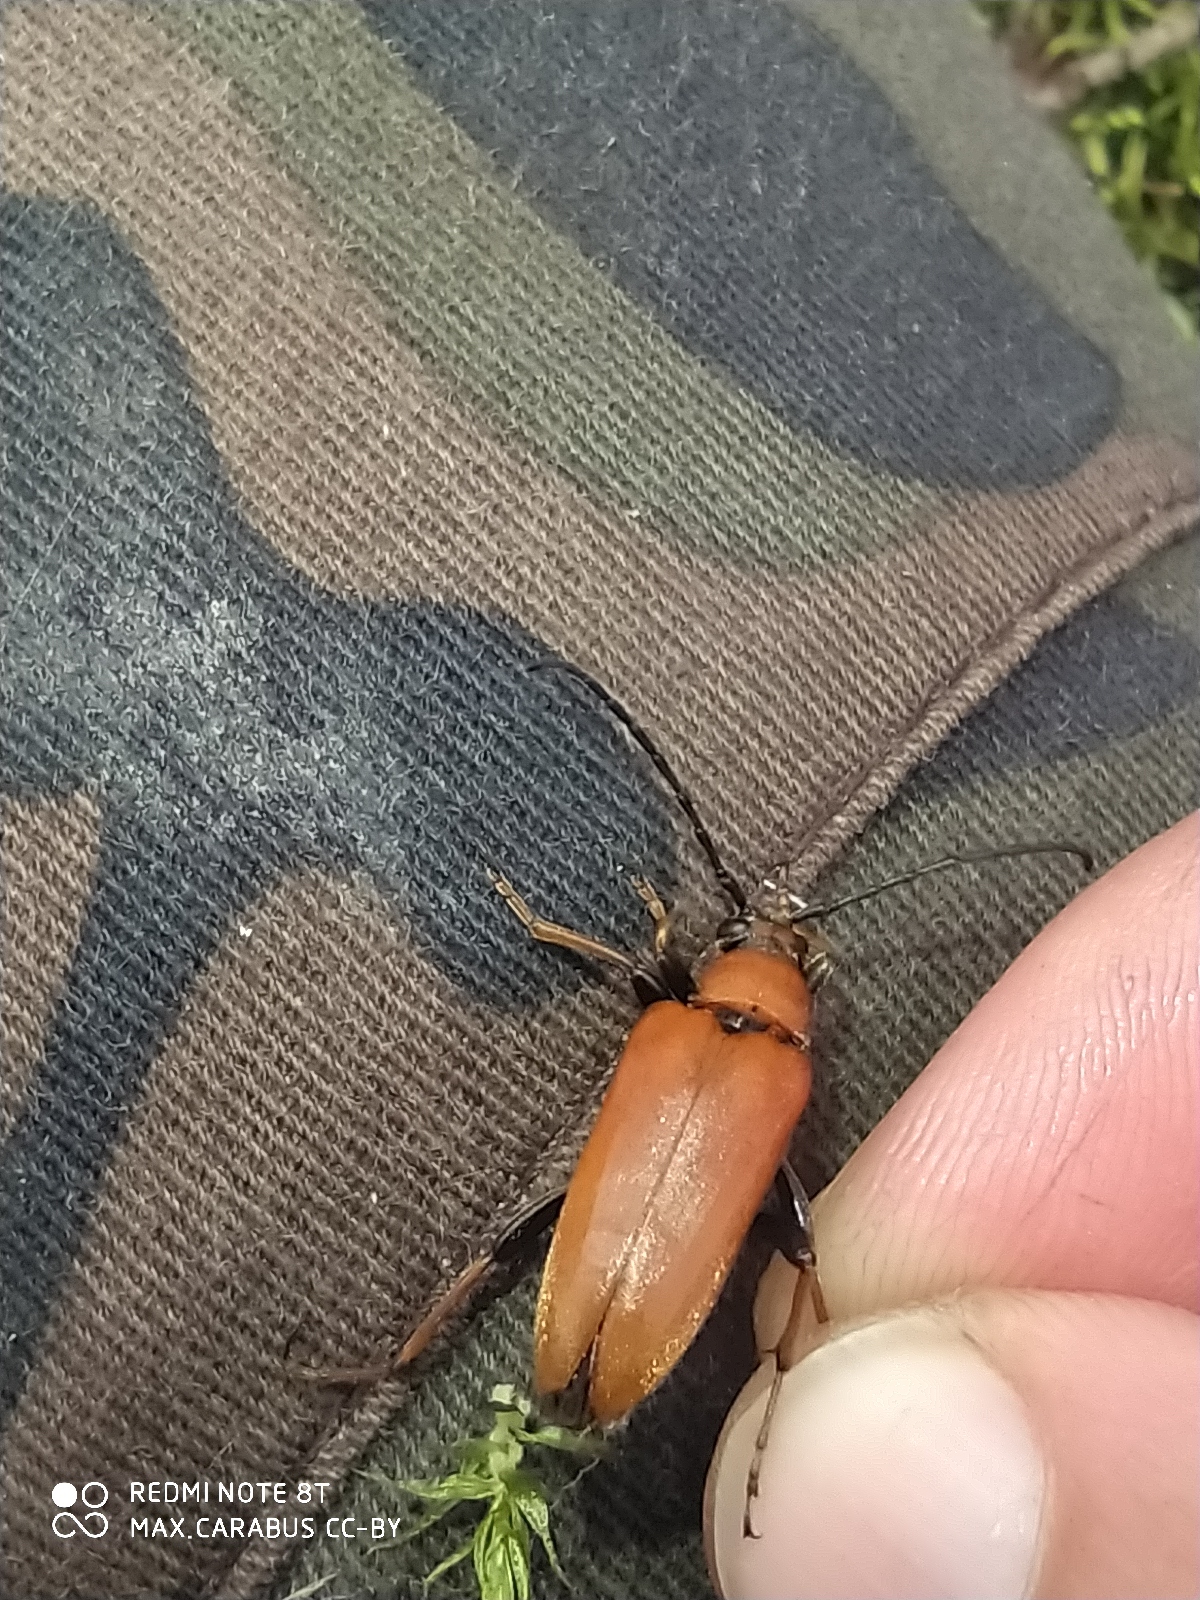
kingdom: Animalia
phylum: Arthropoda
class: Insecta
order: Coleoptera
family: Cerambycidae
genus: Stictoleptura
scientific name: Stictoleptura rubra
